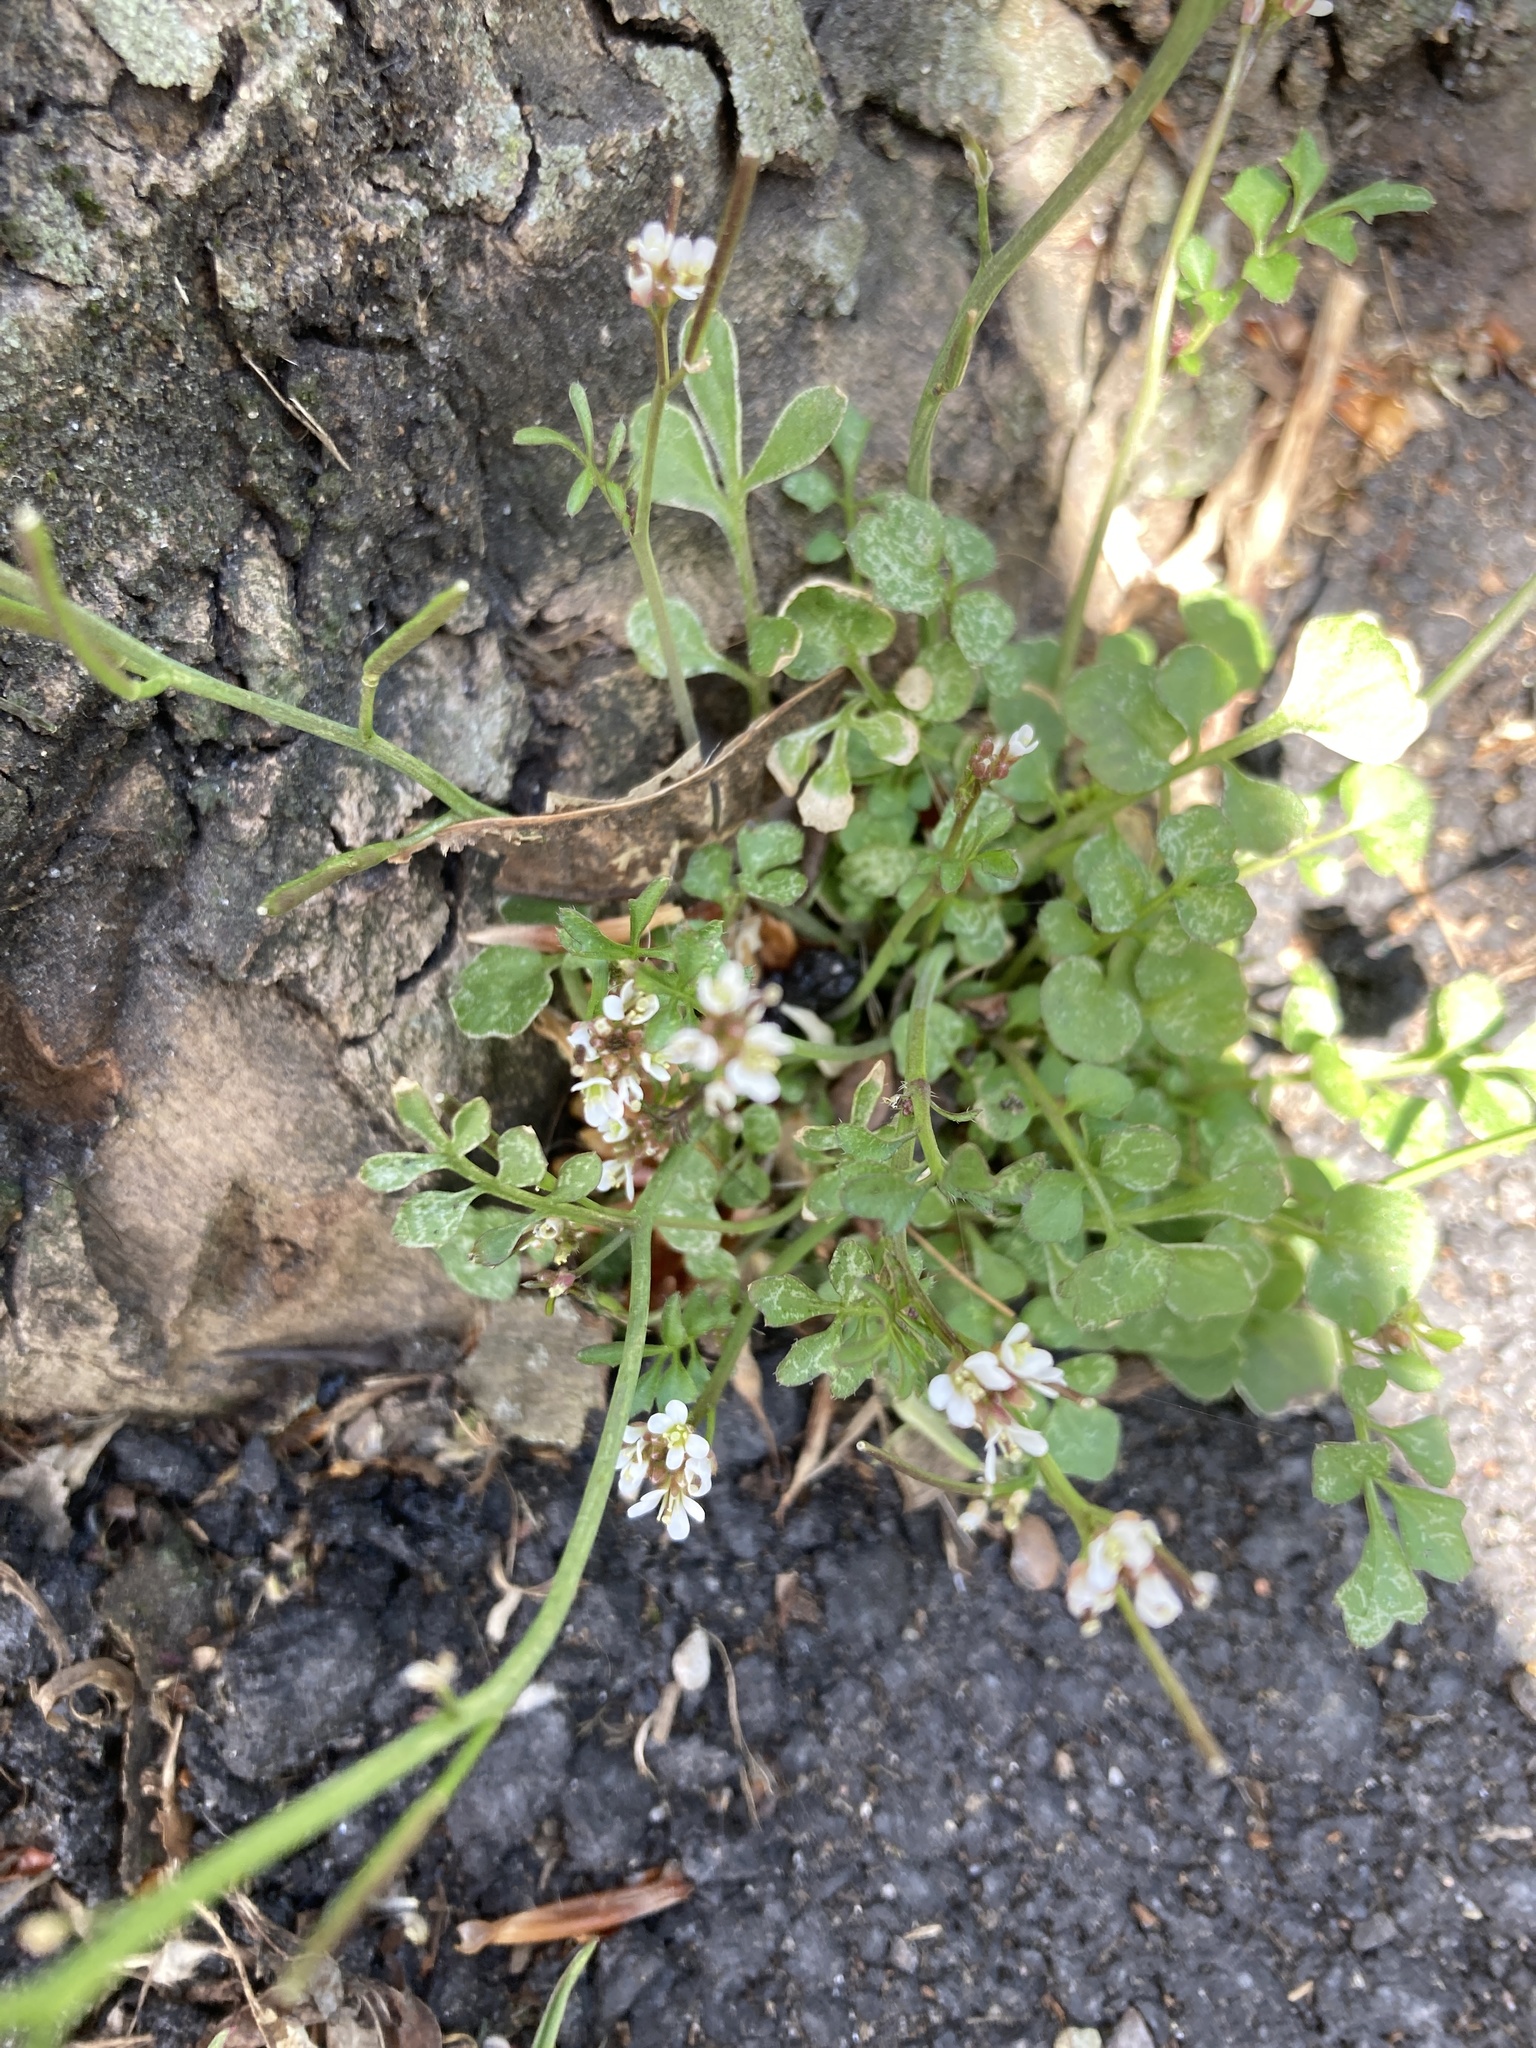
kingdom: Plantae
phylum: Tracheophyta
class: Magnoliopsida
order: Brassicales
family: Brassicaceae
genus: Cardamine
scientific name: Cardamine hirsuta
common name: Hairy bittercress
